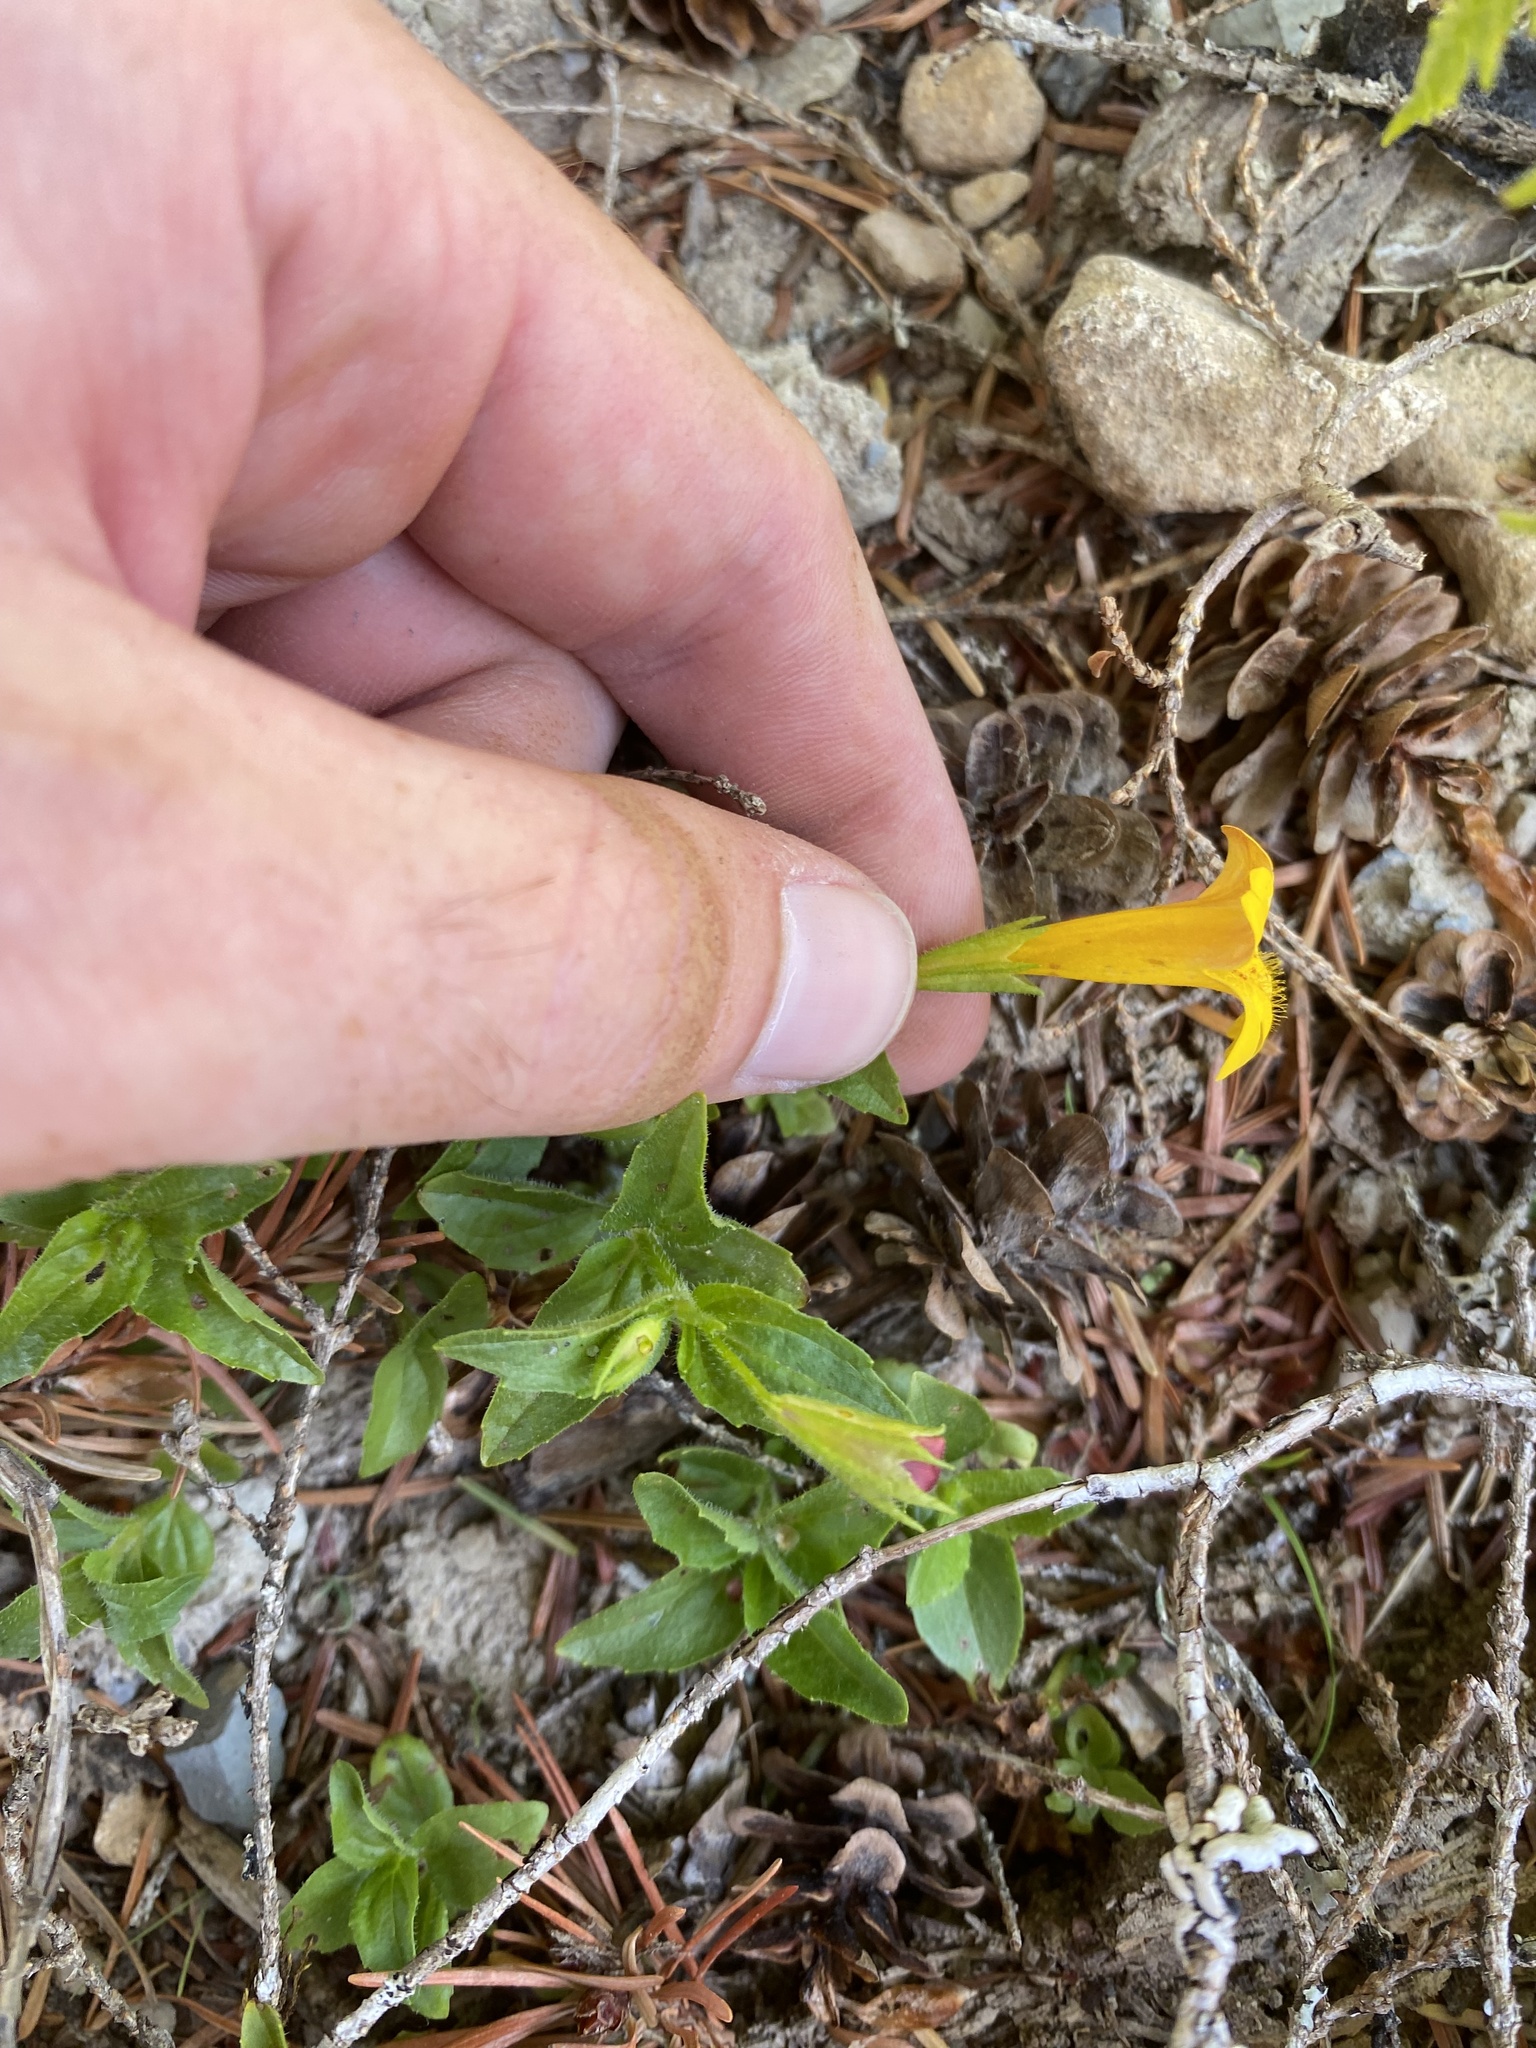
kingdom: Plantae
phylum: Tracheophyta
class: Magnoliopsida
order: Lamiales
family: Phrymaceae
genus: Erythranthe
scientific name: Erythranthe dentata
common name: Coastal monkeyflower
